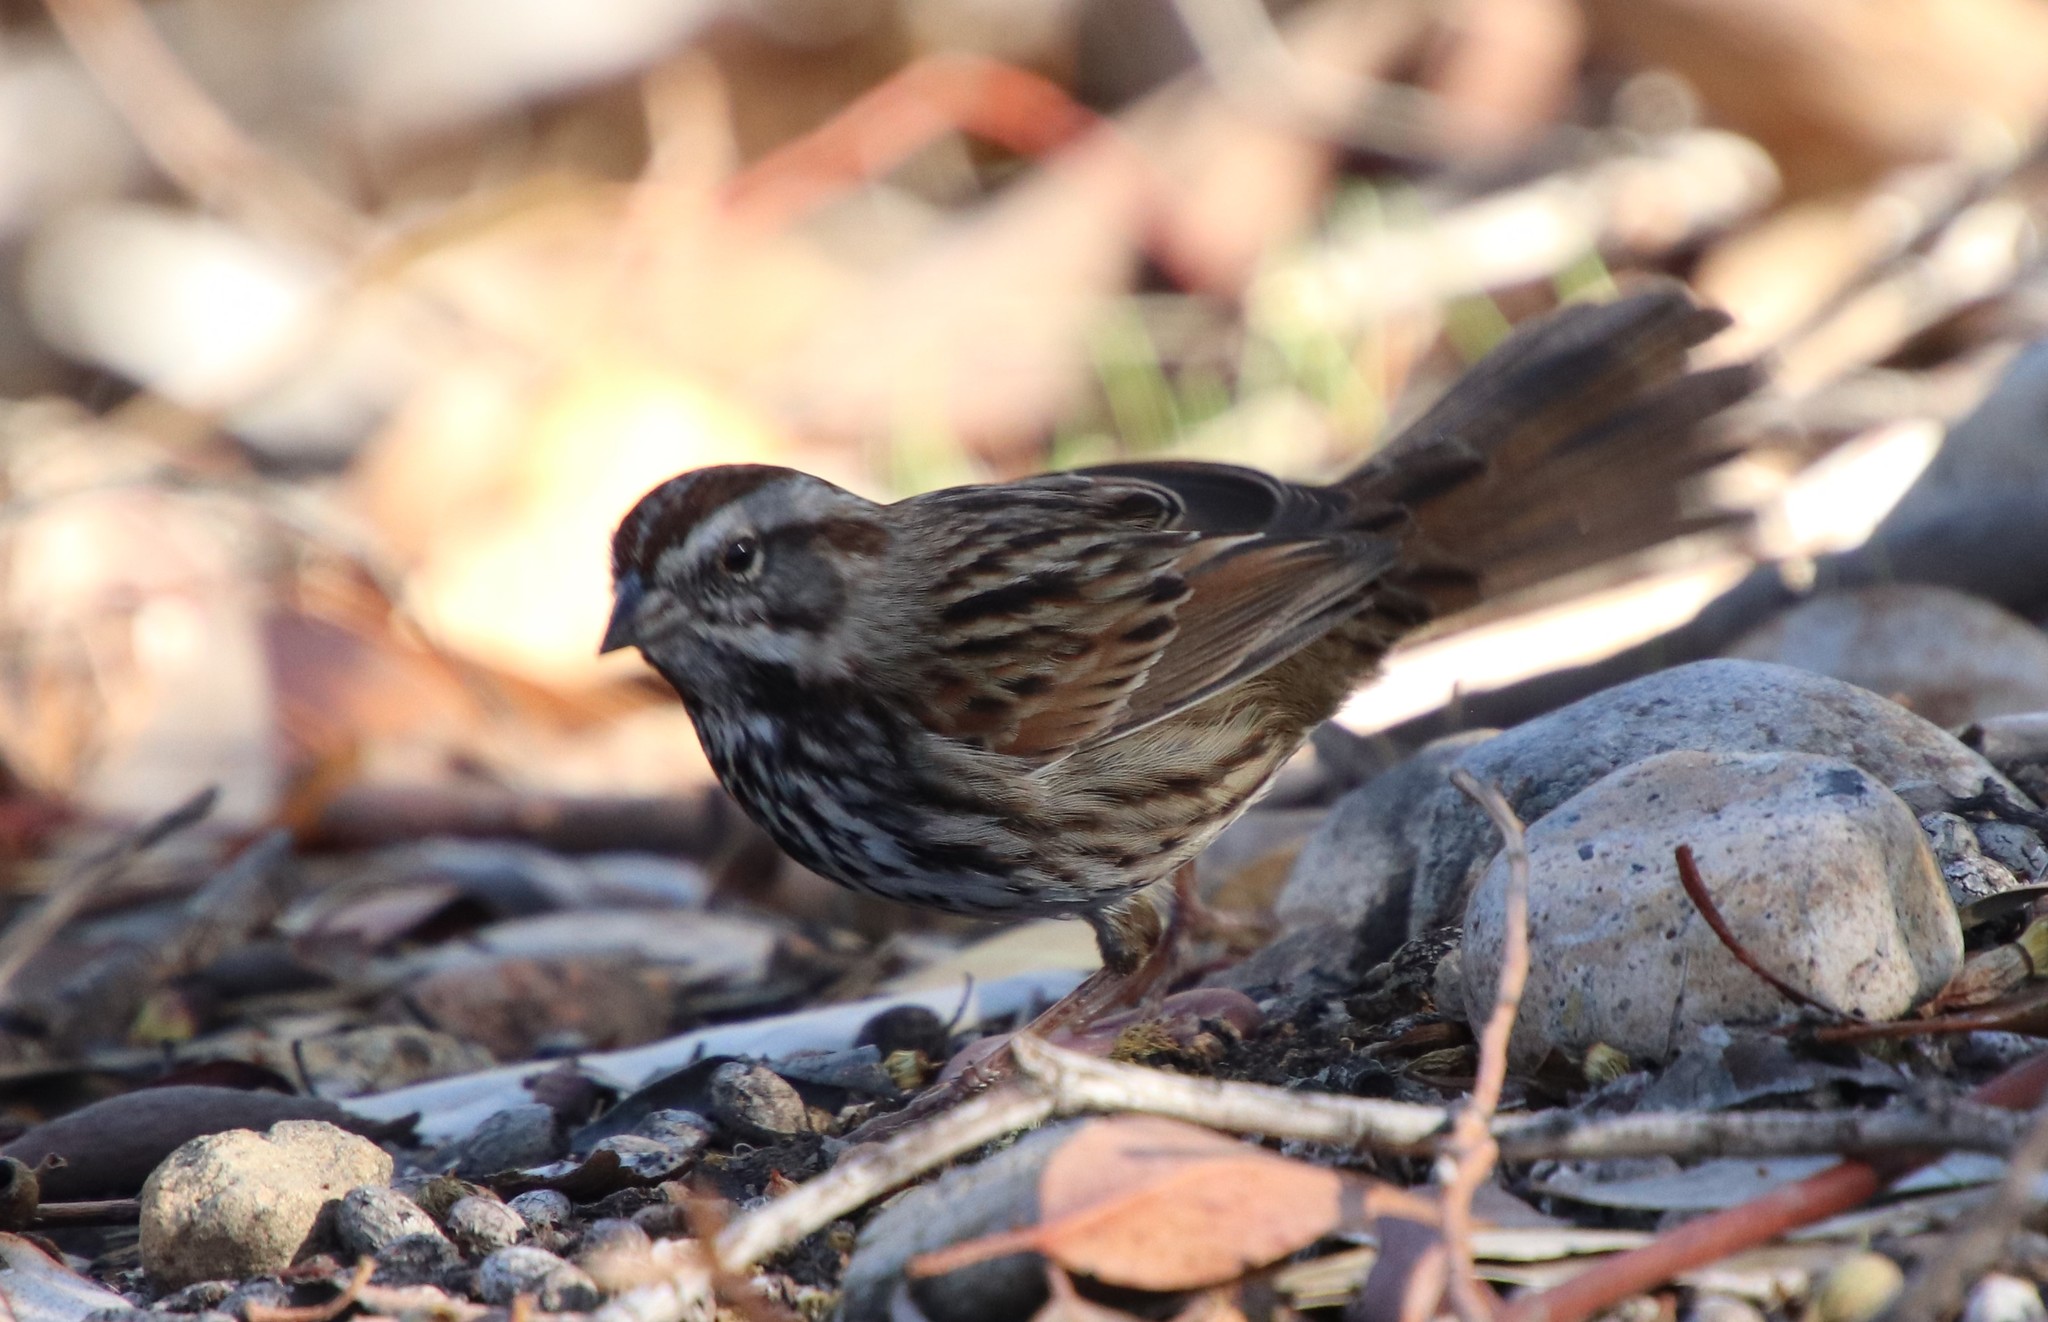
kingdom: Animalia
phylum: Chordata
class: Aves
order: Passeriformes
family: Passerellidae
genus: Melospiza
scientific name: Melospiza melodia
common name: Song sparrow
